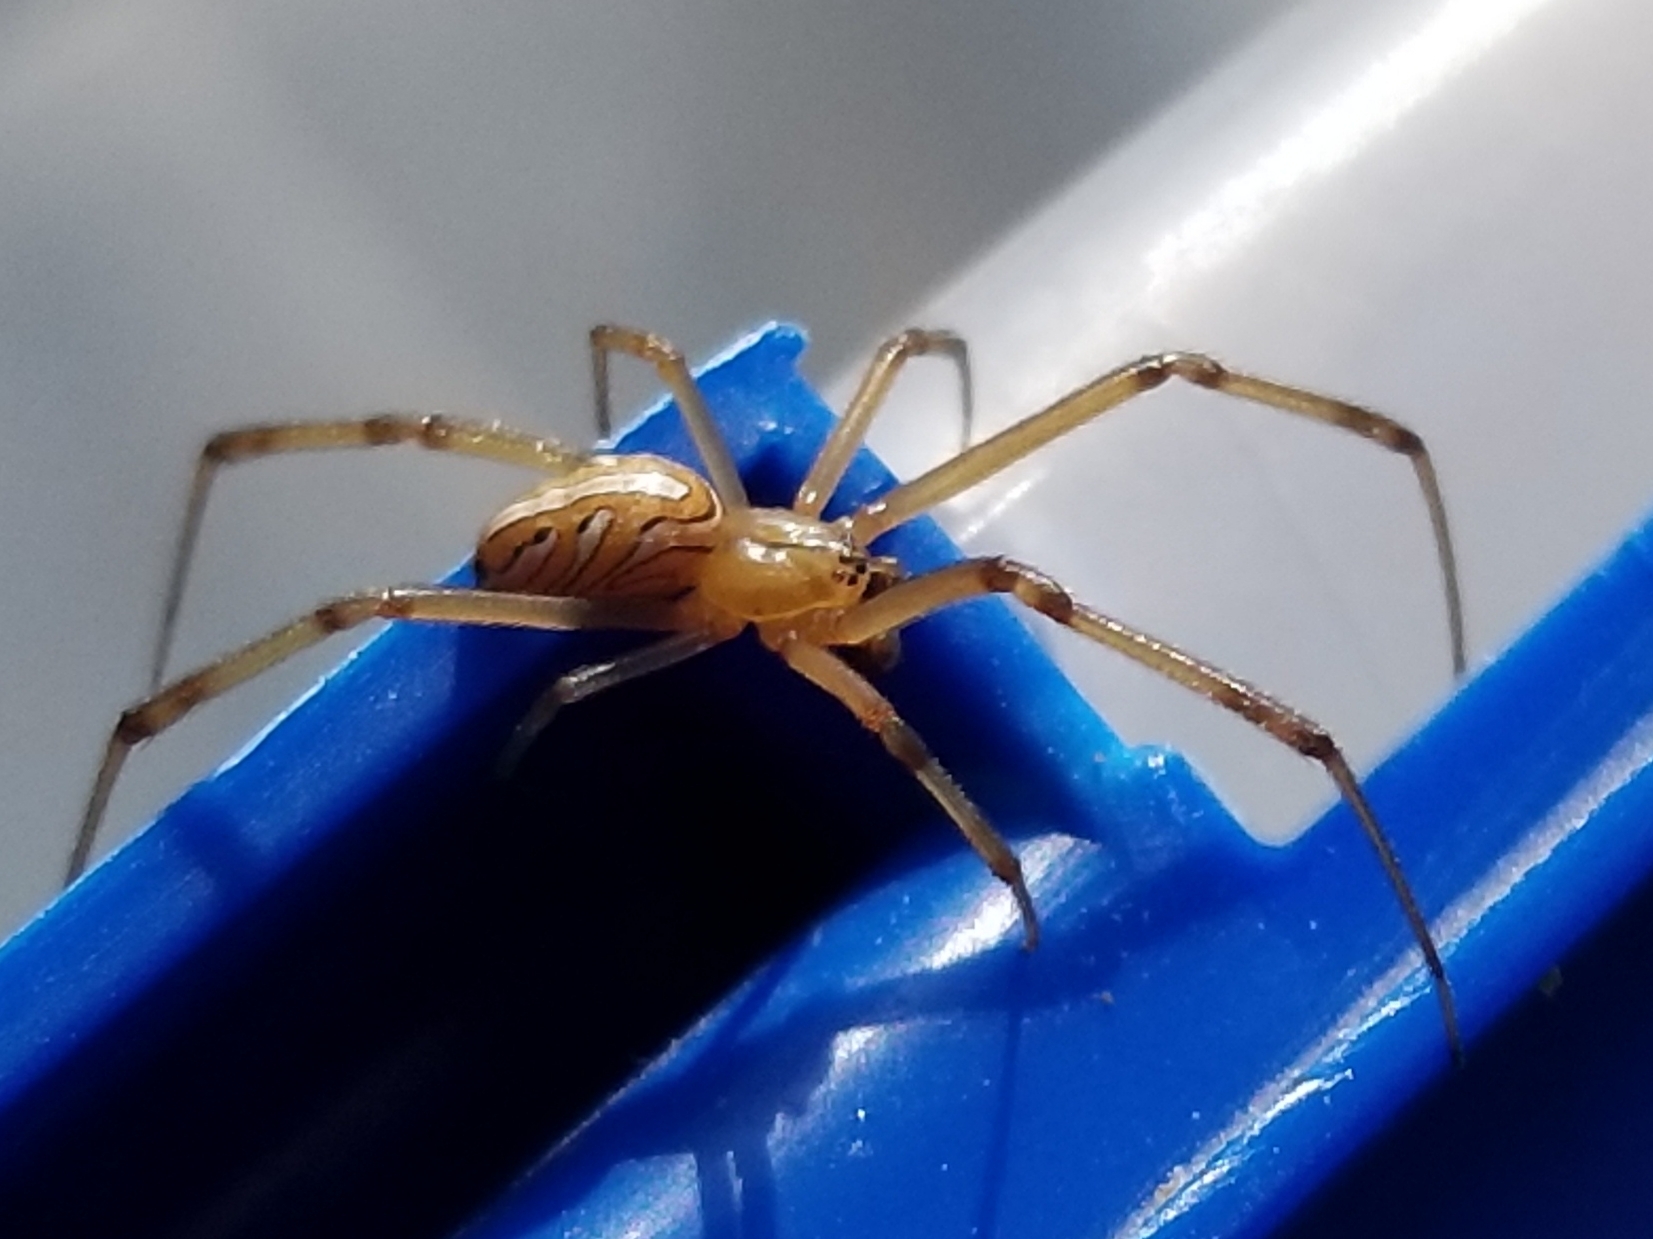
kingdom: Animalia
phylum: Arthropoda
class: Arachnida
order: Araneae
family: Theridiidae
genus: Latrodectus
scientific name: Latrodectus hesperus
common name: Western black widow
